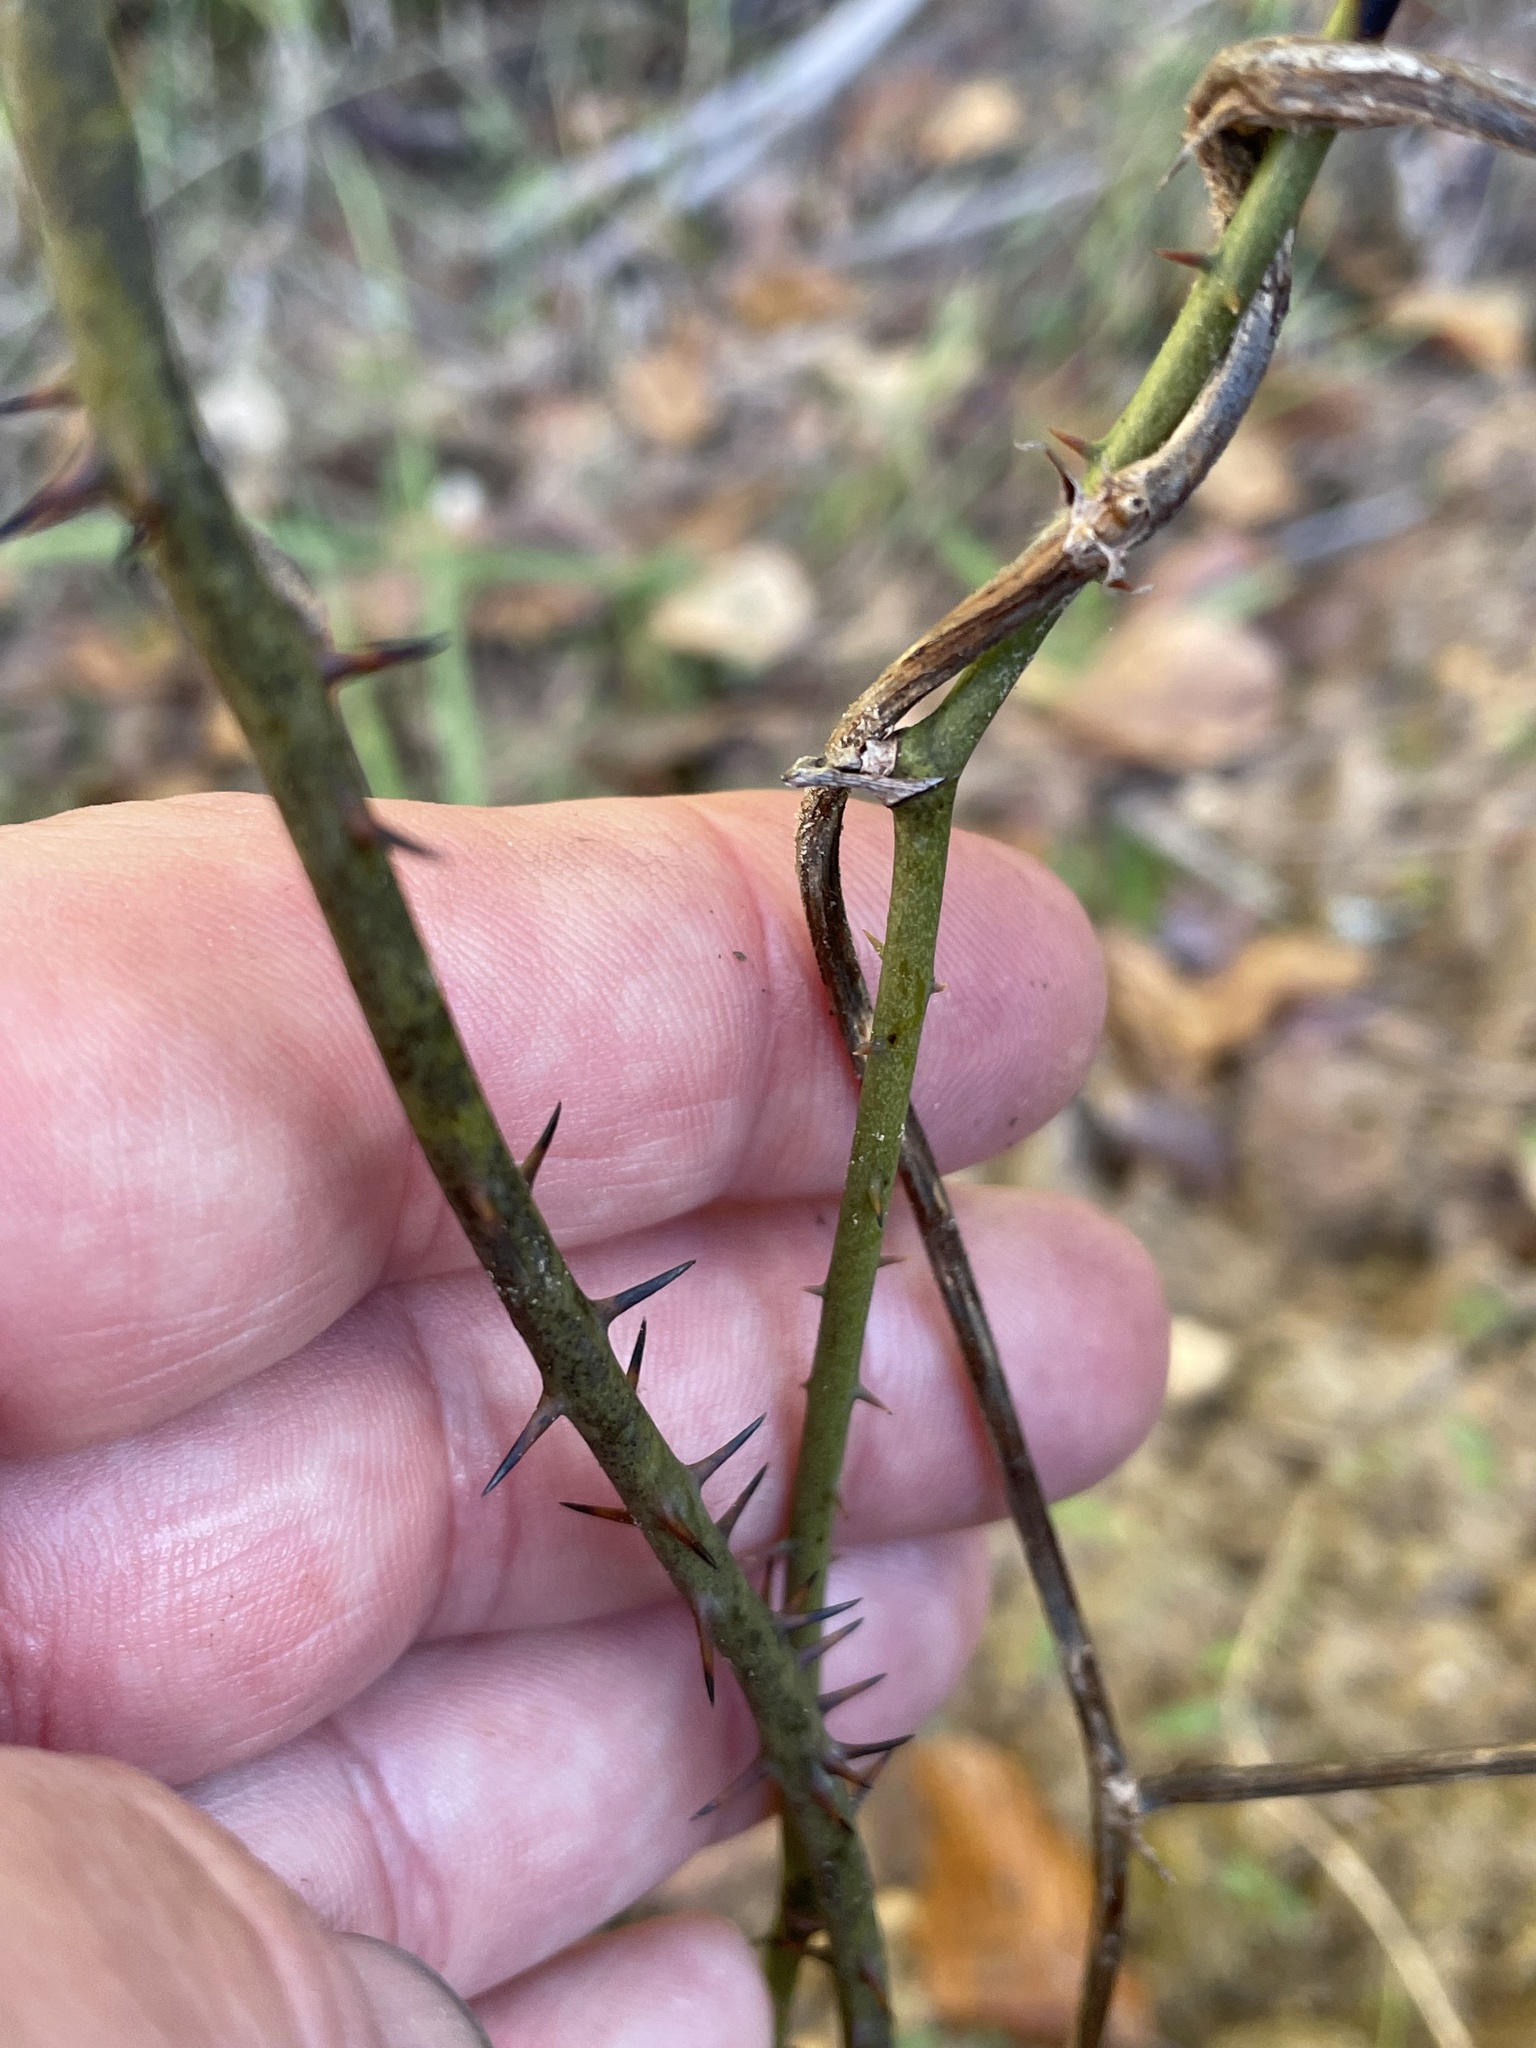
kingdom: Plantae
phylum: Tracheophyta
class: Liliopsida
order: Liliales
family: Smilacaceae
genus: Smilax
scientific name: Smilax maritima
